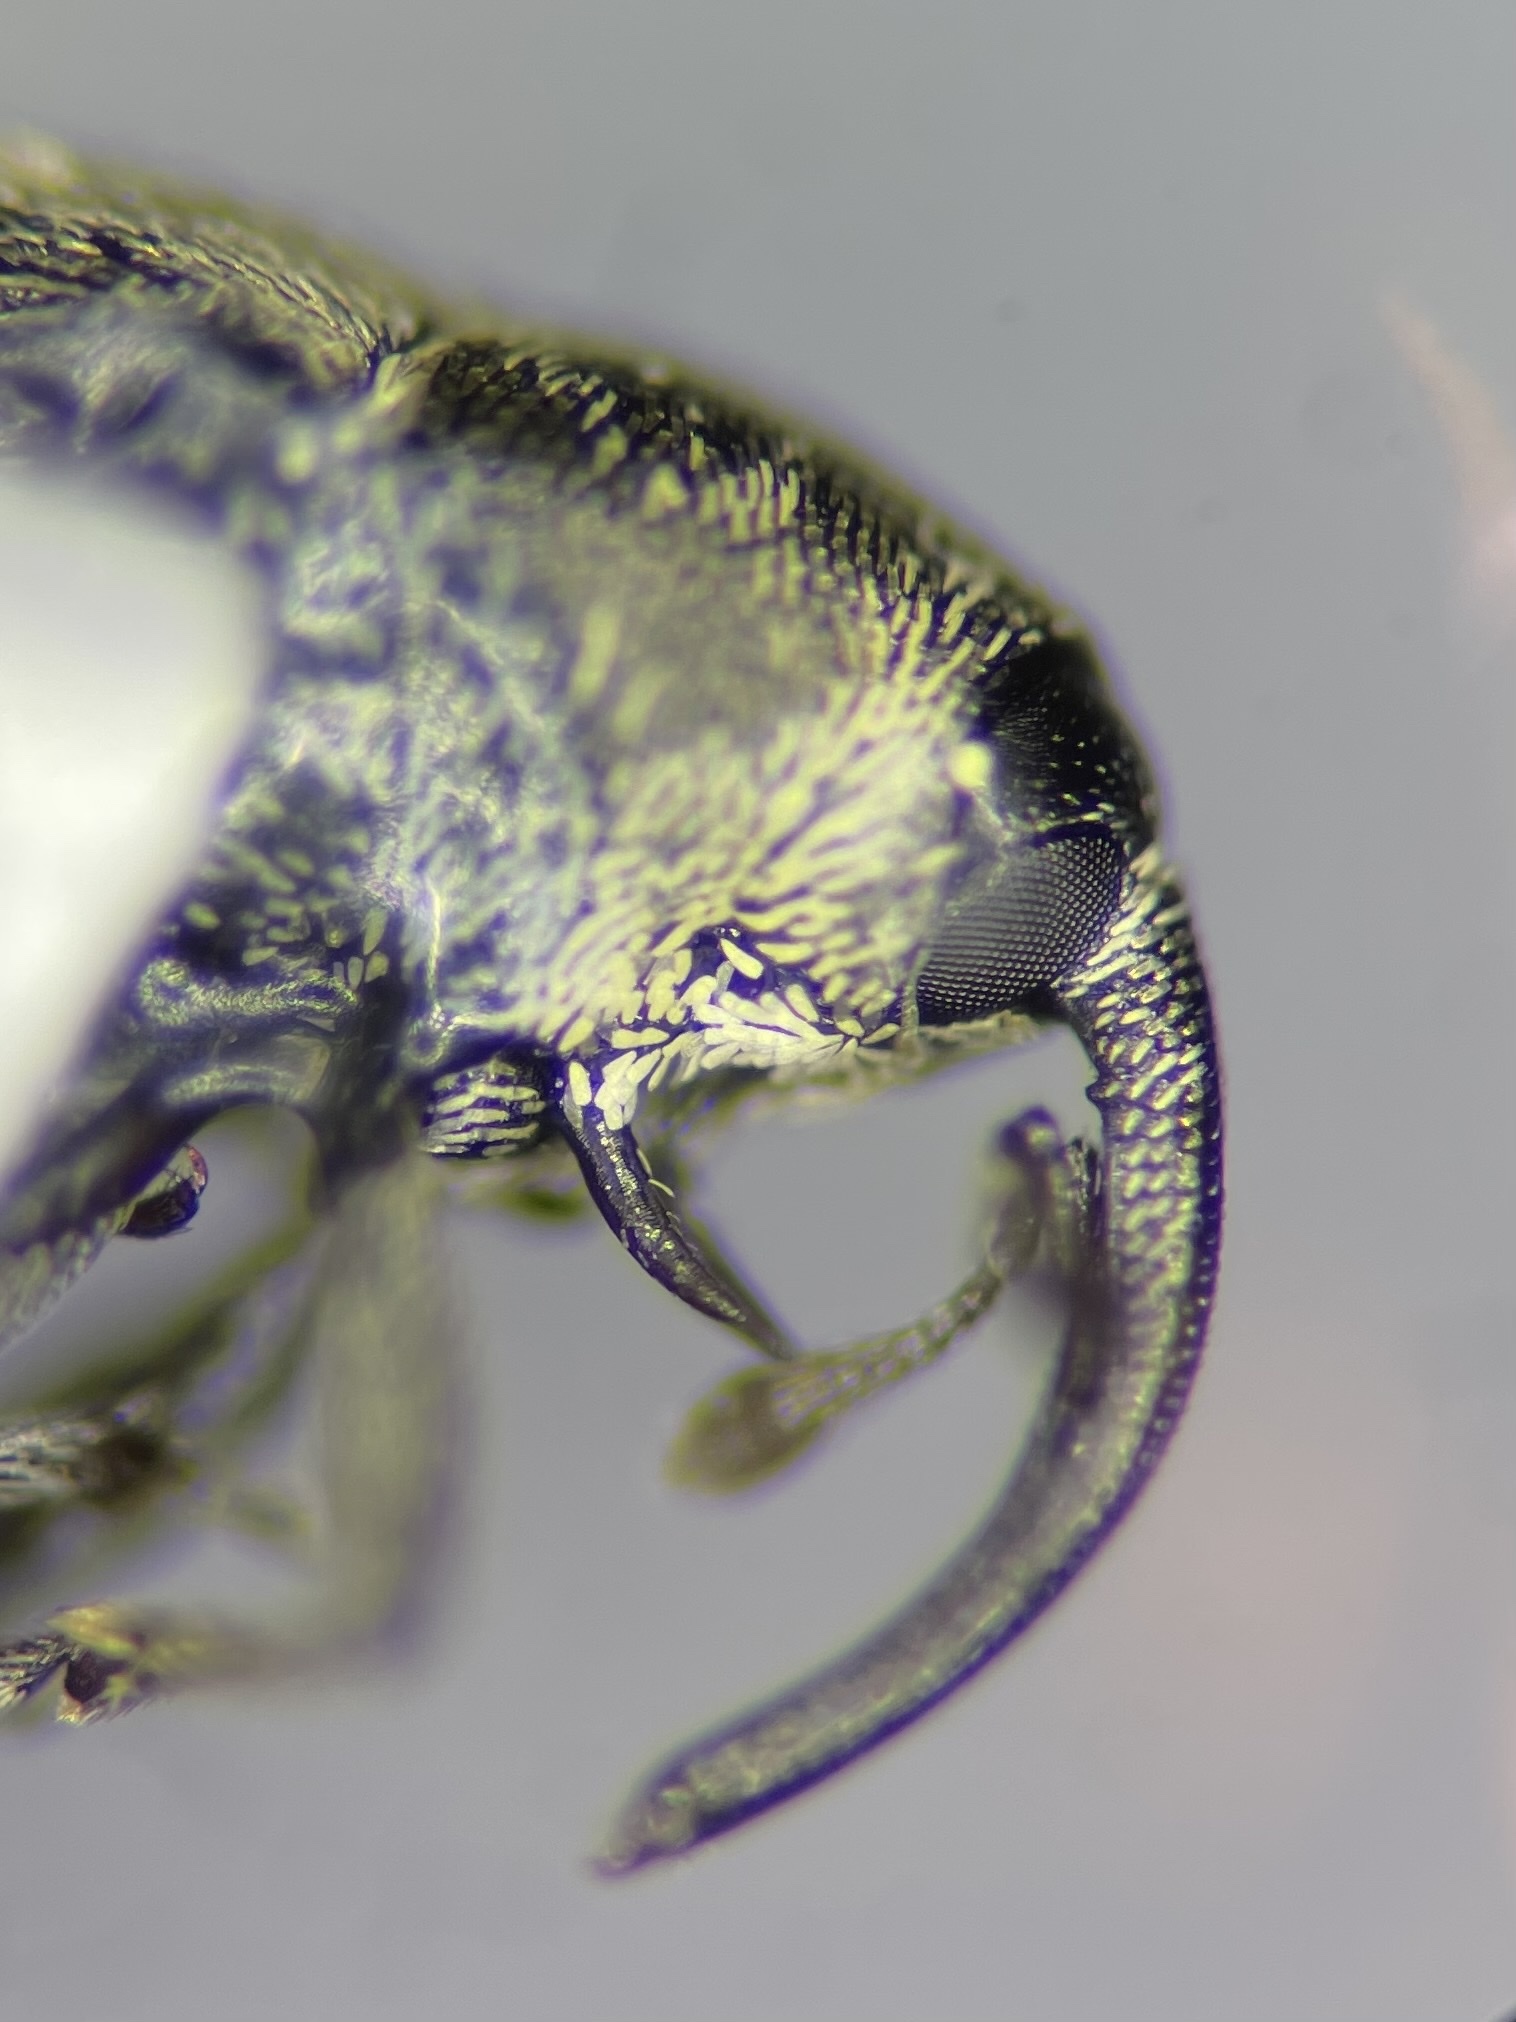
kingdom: Animalia
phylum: Arthropoda
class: Insecta
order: Coleoptera
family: Curculionidae
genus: Geraeus
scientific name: Geraeus picumnus
